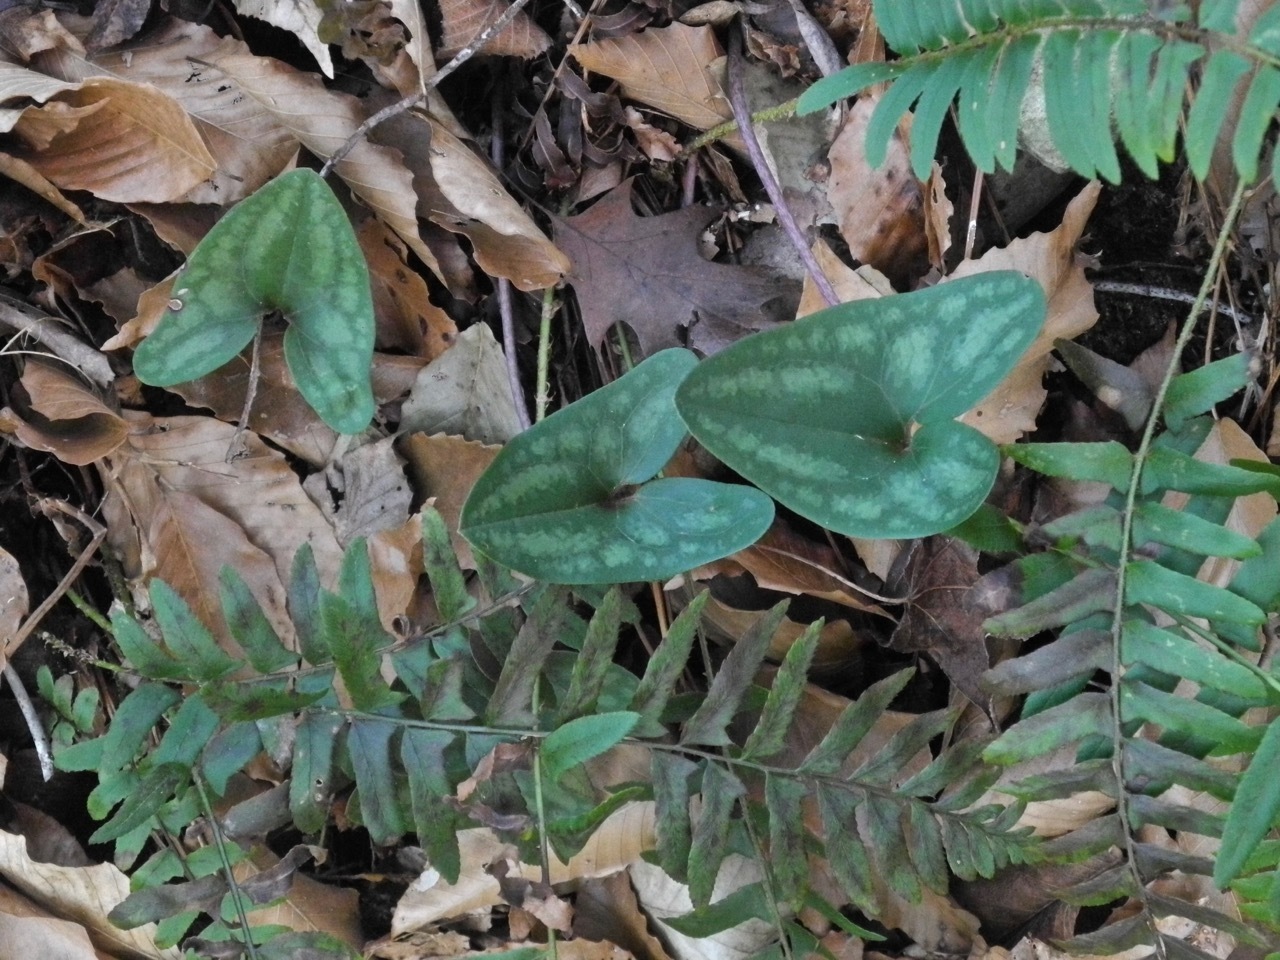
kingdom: Plantae
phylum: Tracheophyta
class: Magnoliopsida
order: Piperales
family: Aristolochiaceae
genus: Hexastylis
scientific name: Hexastylis arifolia
